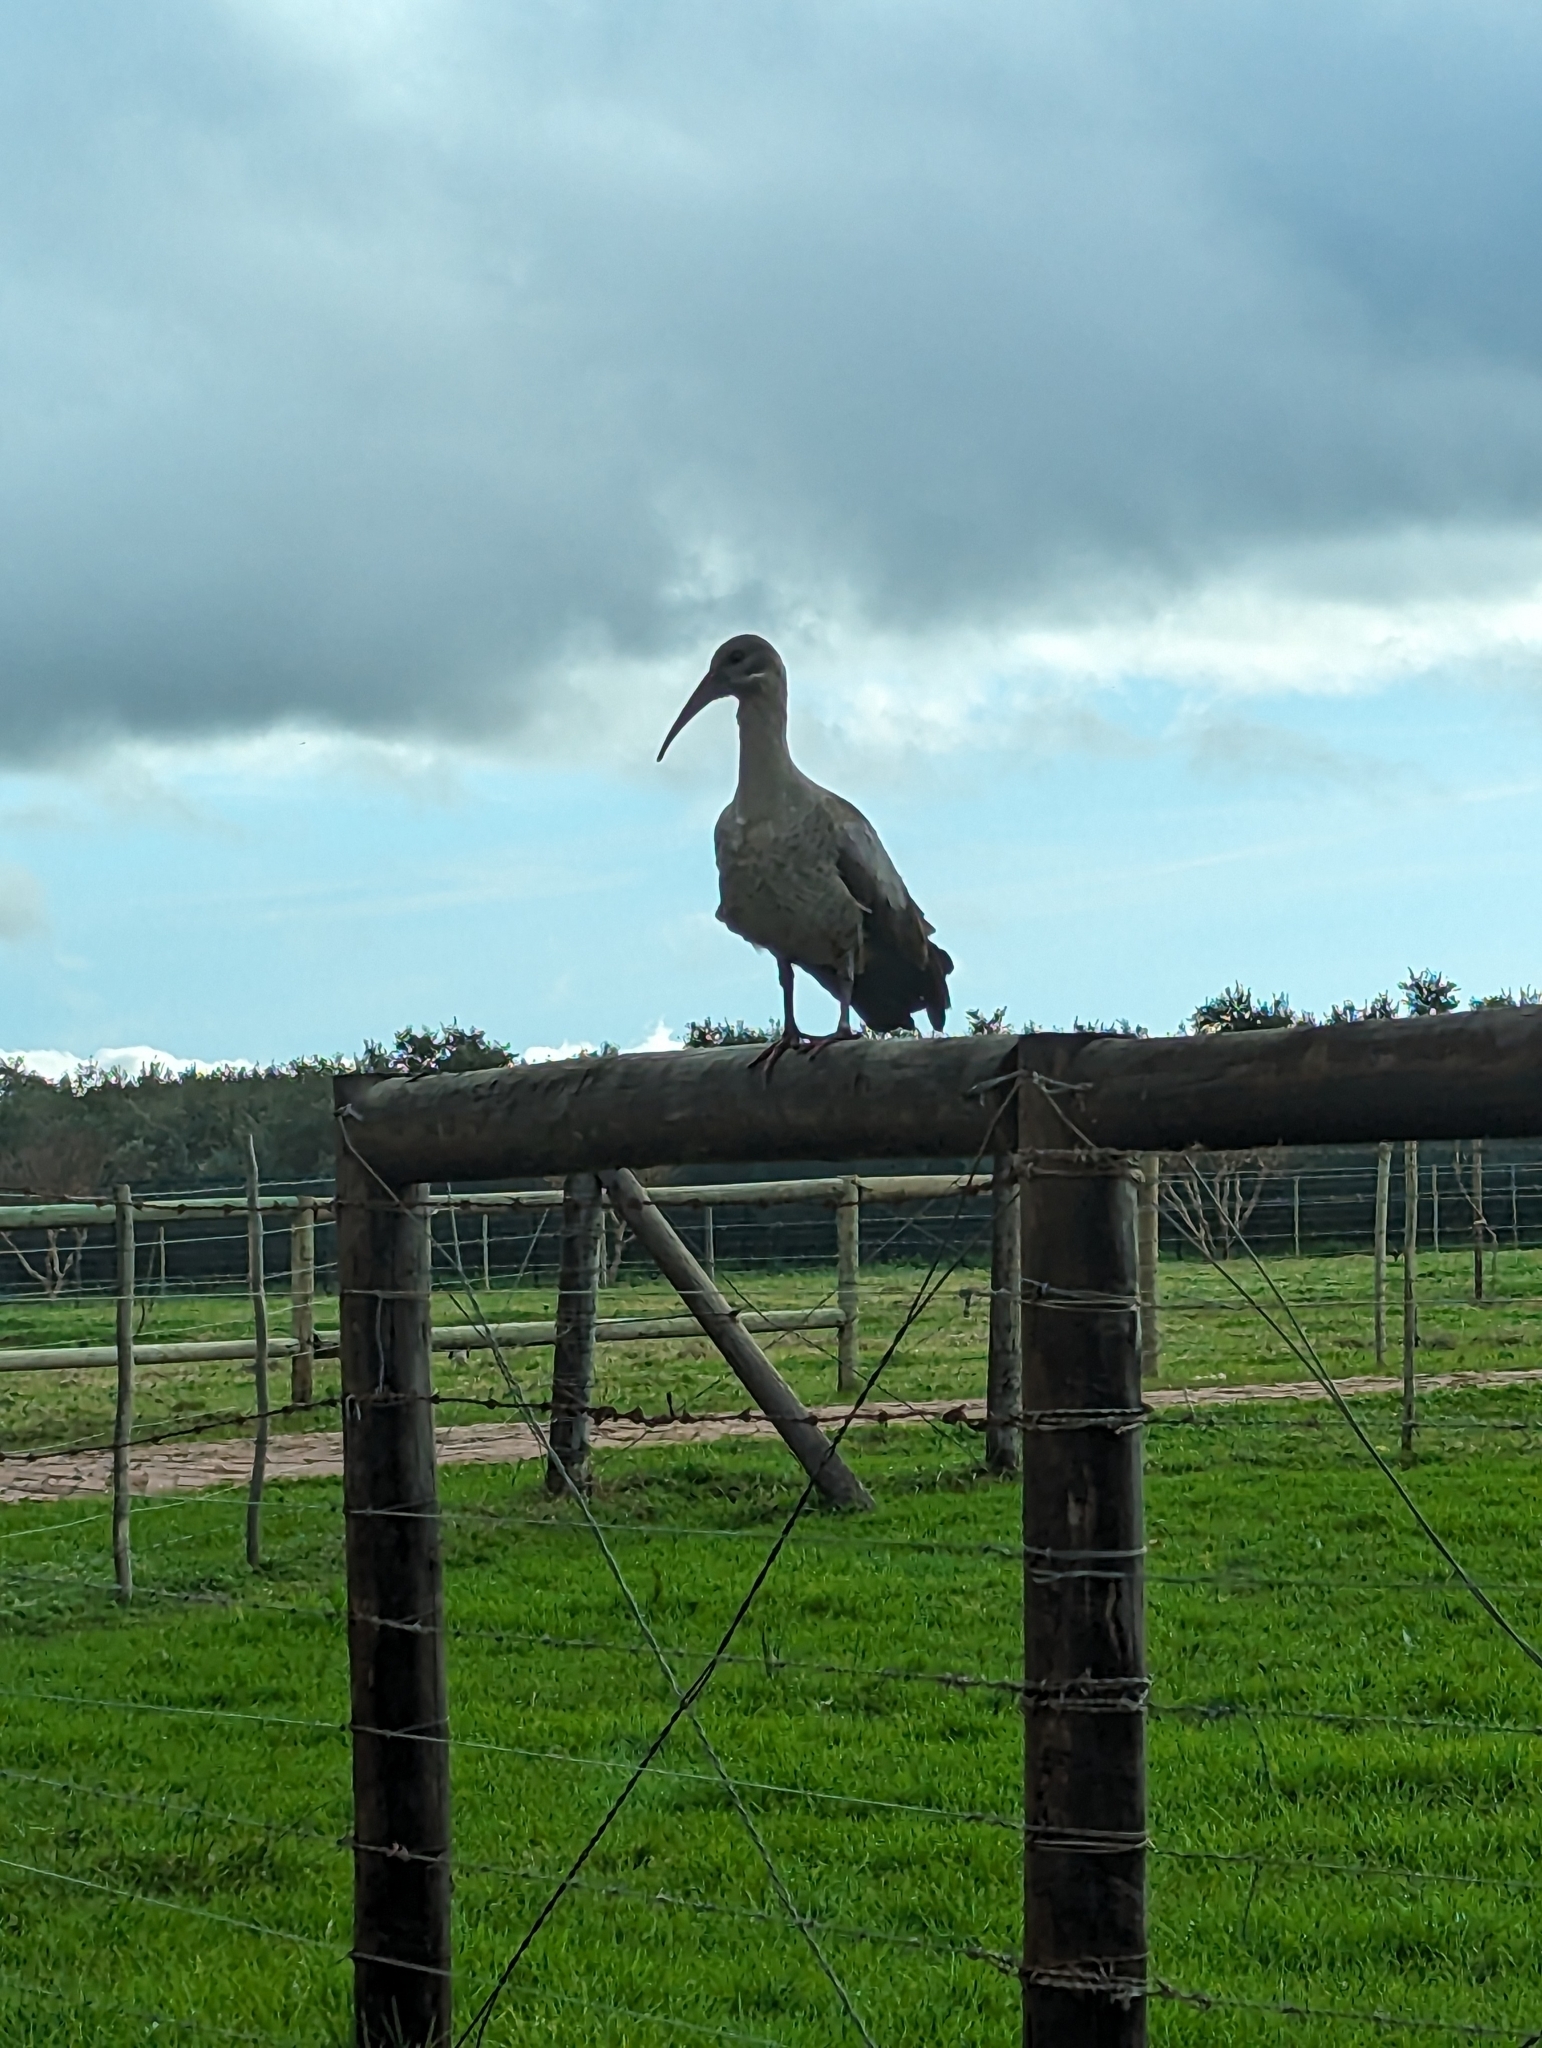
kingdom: Animalia
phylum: Chordata
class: Aves
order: Pelecaniformes
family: Threskiornithidae
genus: Bostrychia
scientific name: Bostrychia hagedash
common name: Hadada ibis
